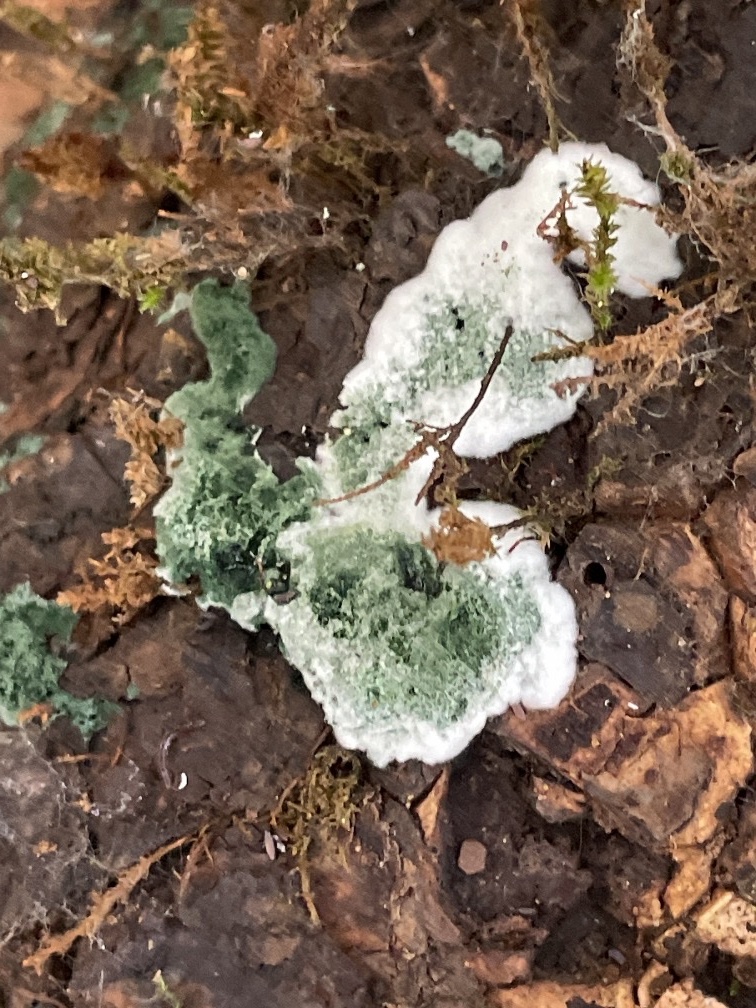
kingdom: Fungi
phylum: Ascomycota
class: Sordariomycetes
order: Hypocreales
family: Hypocreaceae
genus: Trichoderma
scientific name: Trichoderma viride
